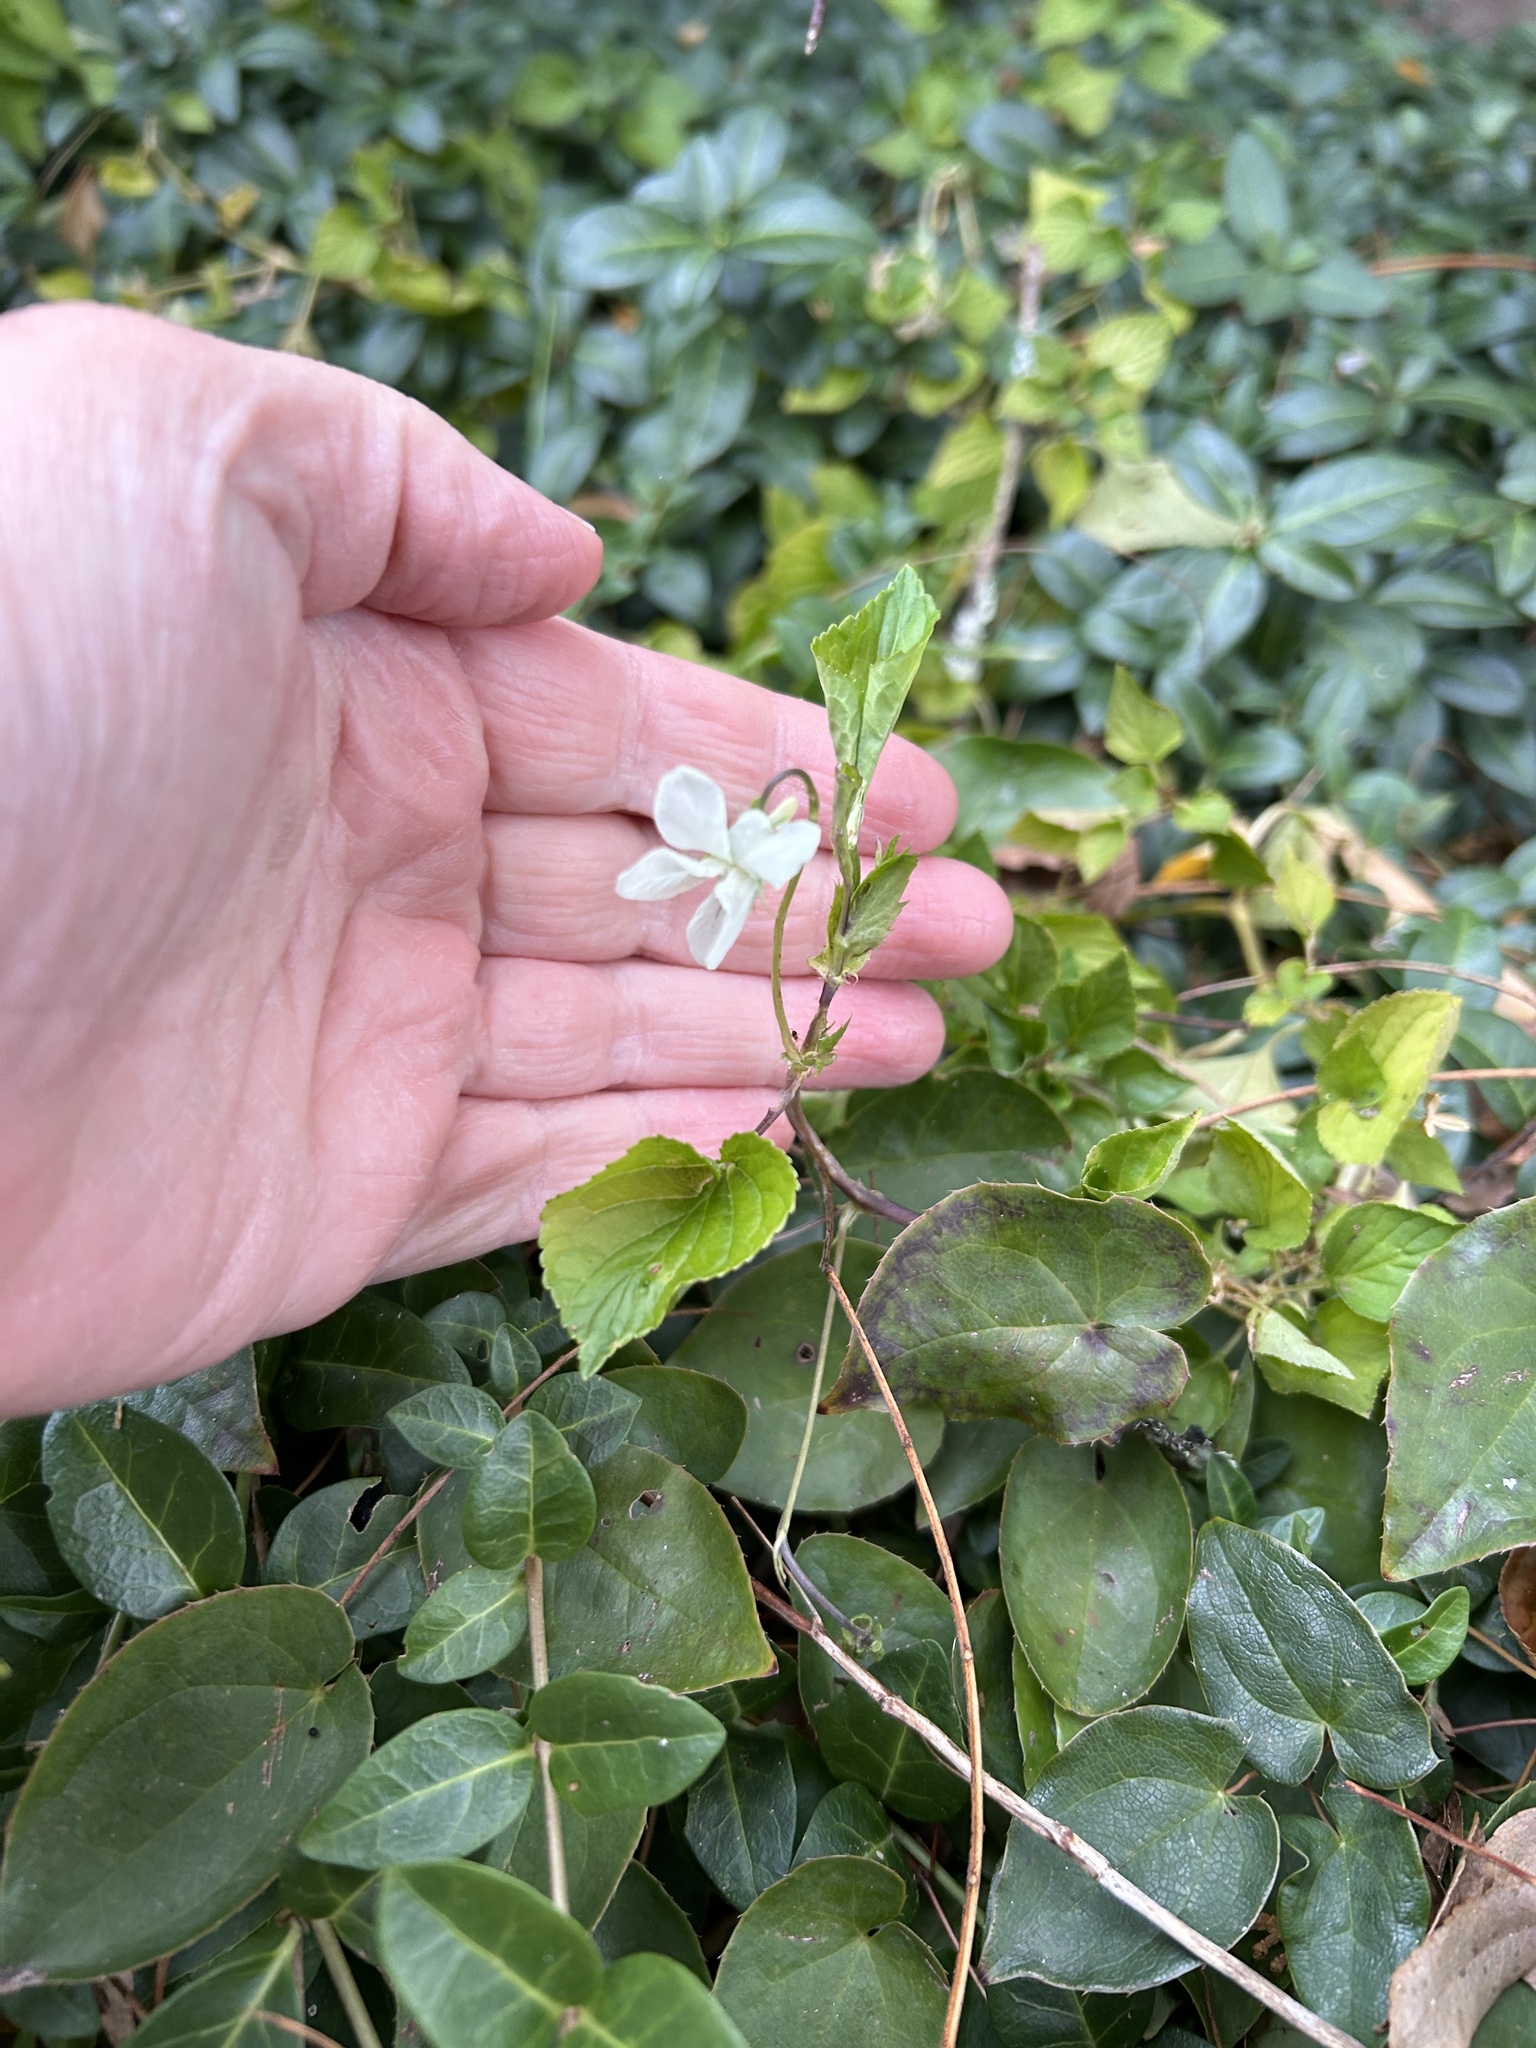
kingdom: Plantae
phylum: Tracheophyta
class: Magnoliopsida
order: Malpighiales
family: Violaceae
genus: Viola
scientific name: Viola striata
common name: Cream violet
